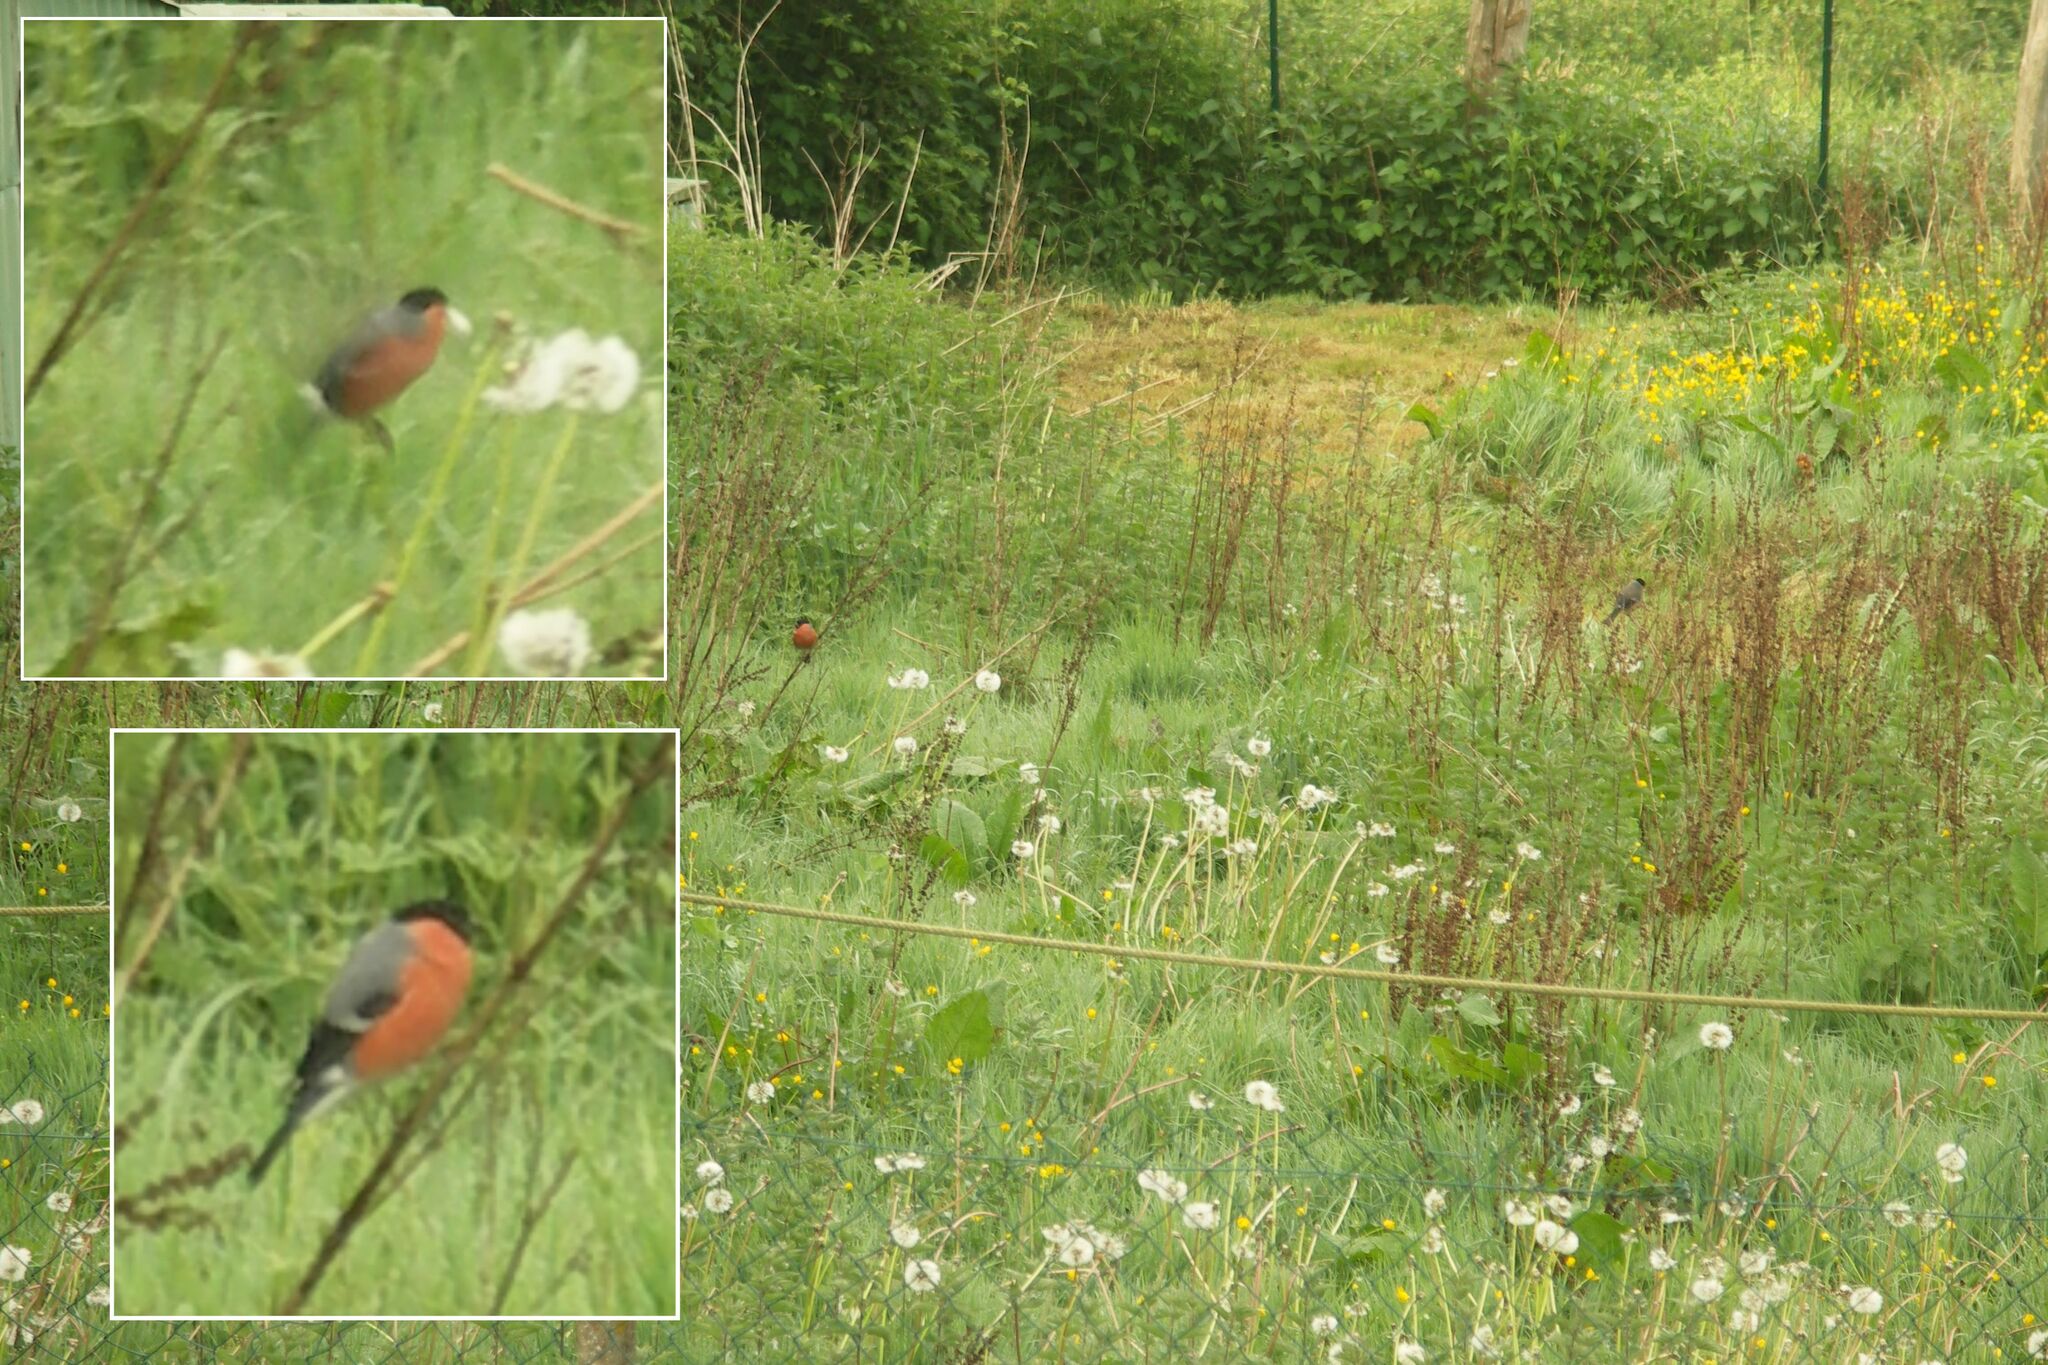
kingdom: Animalia
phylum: Chordata
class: Aves
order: Passeriformes
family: Fringillidae
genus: Pyrrhula
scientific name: Pyrrhula pyrrhula
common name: Eurasian bullfinch
